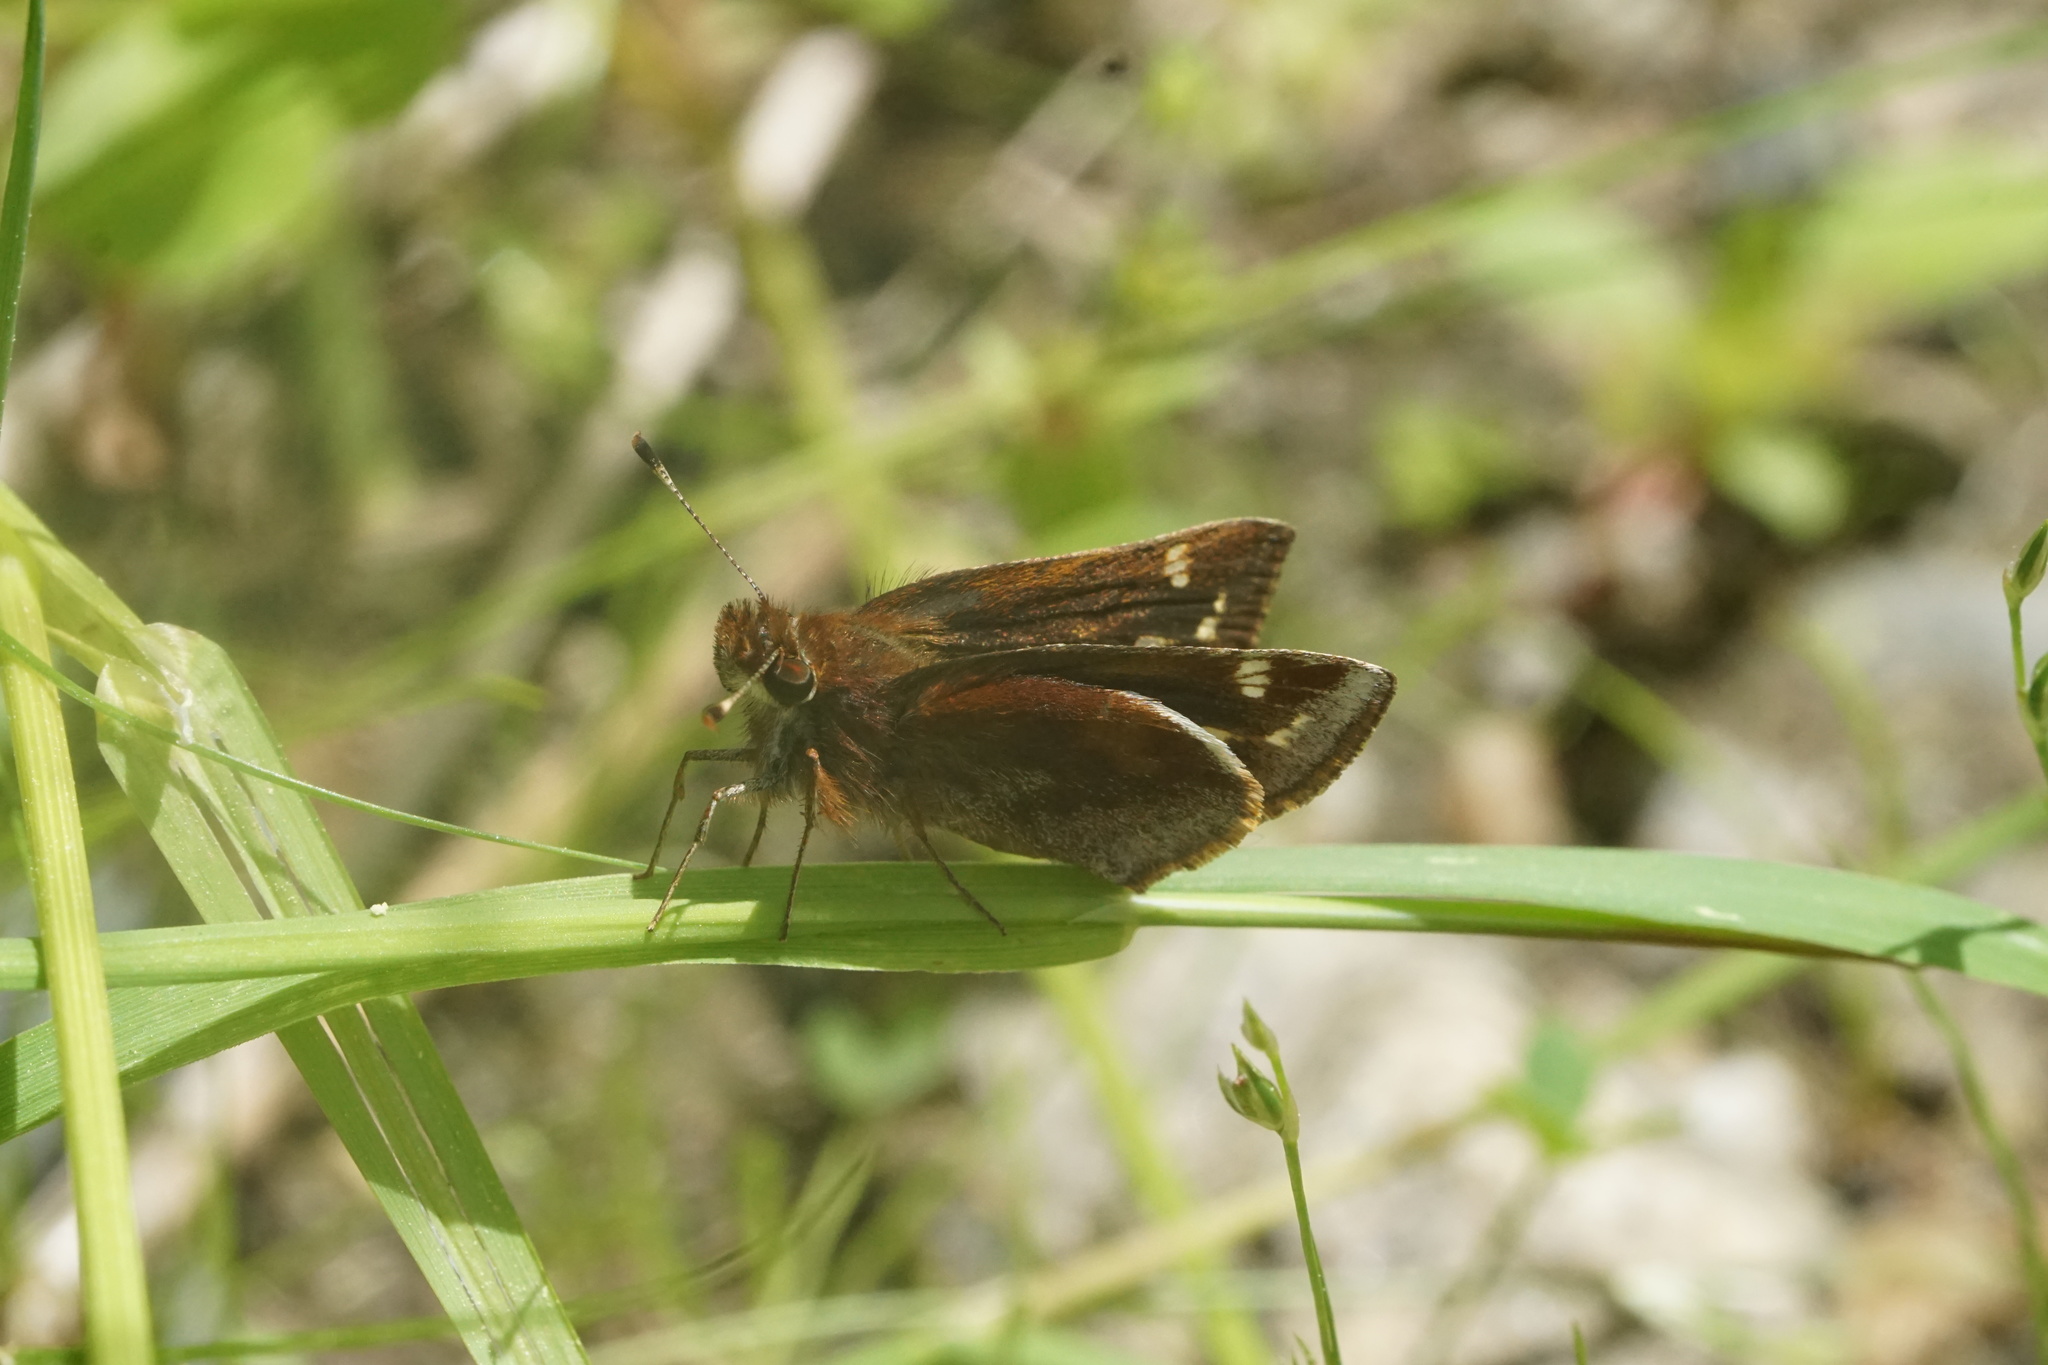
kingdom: Animalia
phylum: Arthropoda
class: Insecta
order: Lepidoptera
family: Hesperiidae
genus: Lon
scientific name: Lon zabulon
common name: Zabulon skipper
